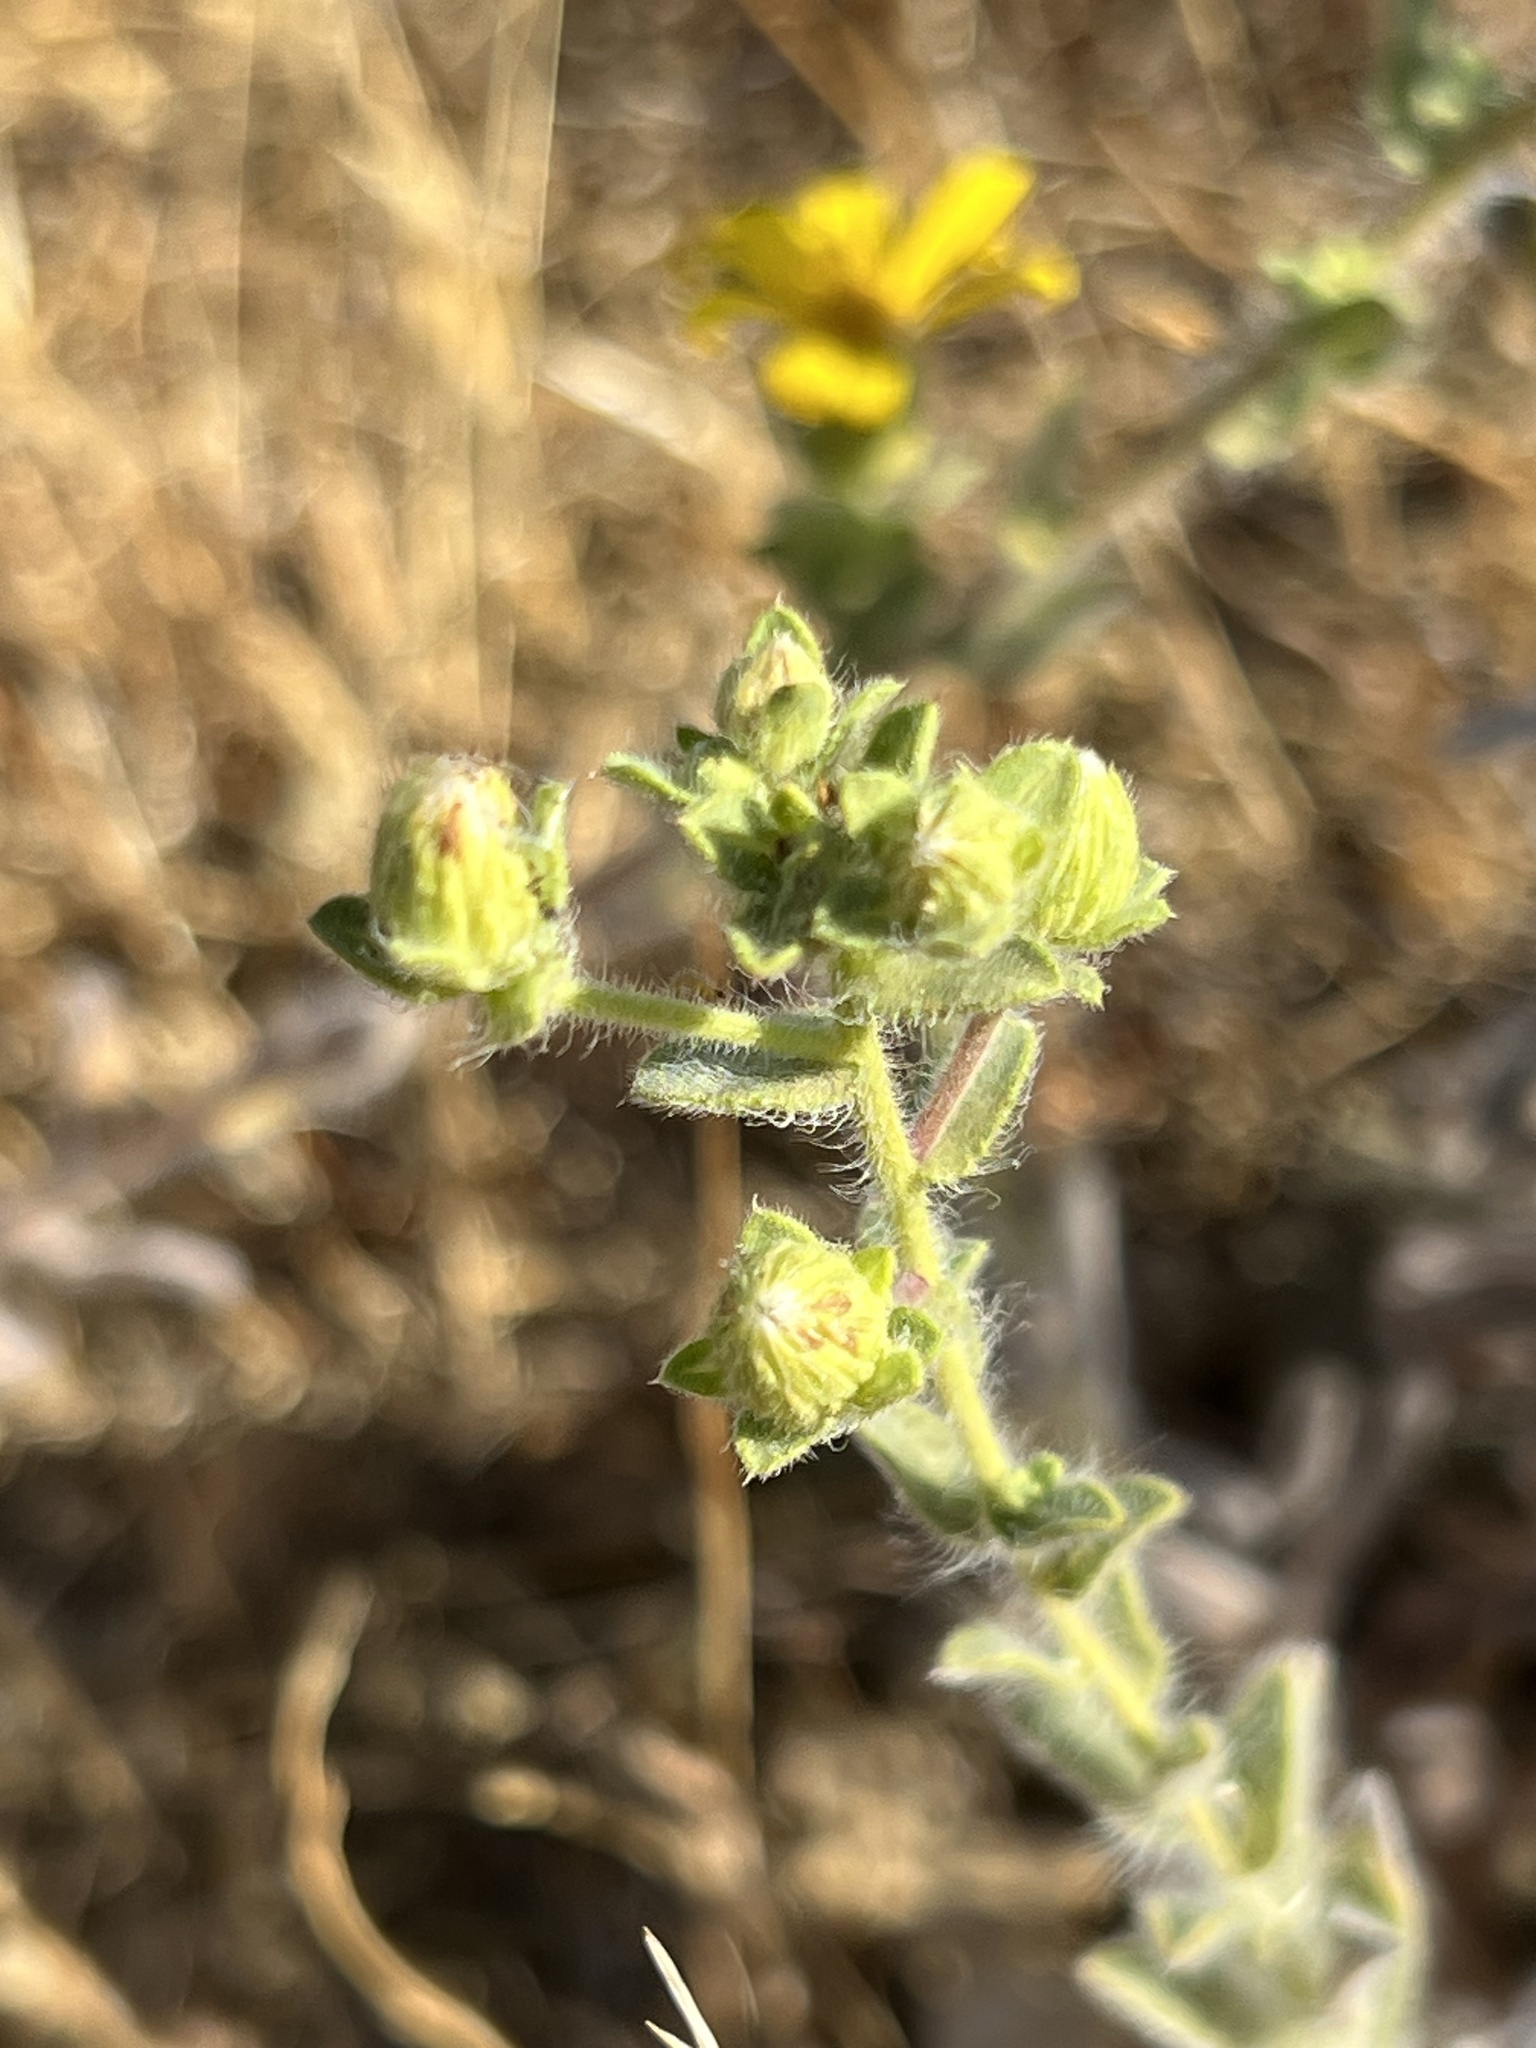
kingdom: Plantae
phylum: Tracheophyta
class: Magnoliopsida
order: Asterales
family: Asteraceae
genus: Heterotheca
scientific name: Heterotheca villosissima
